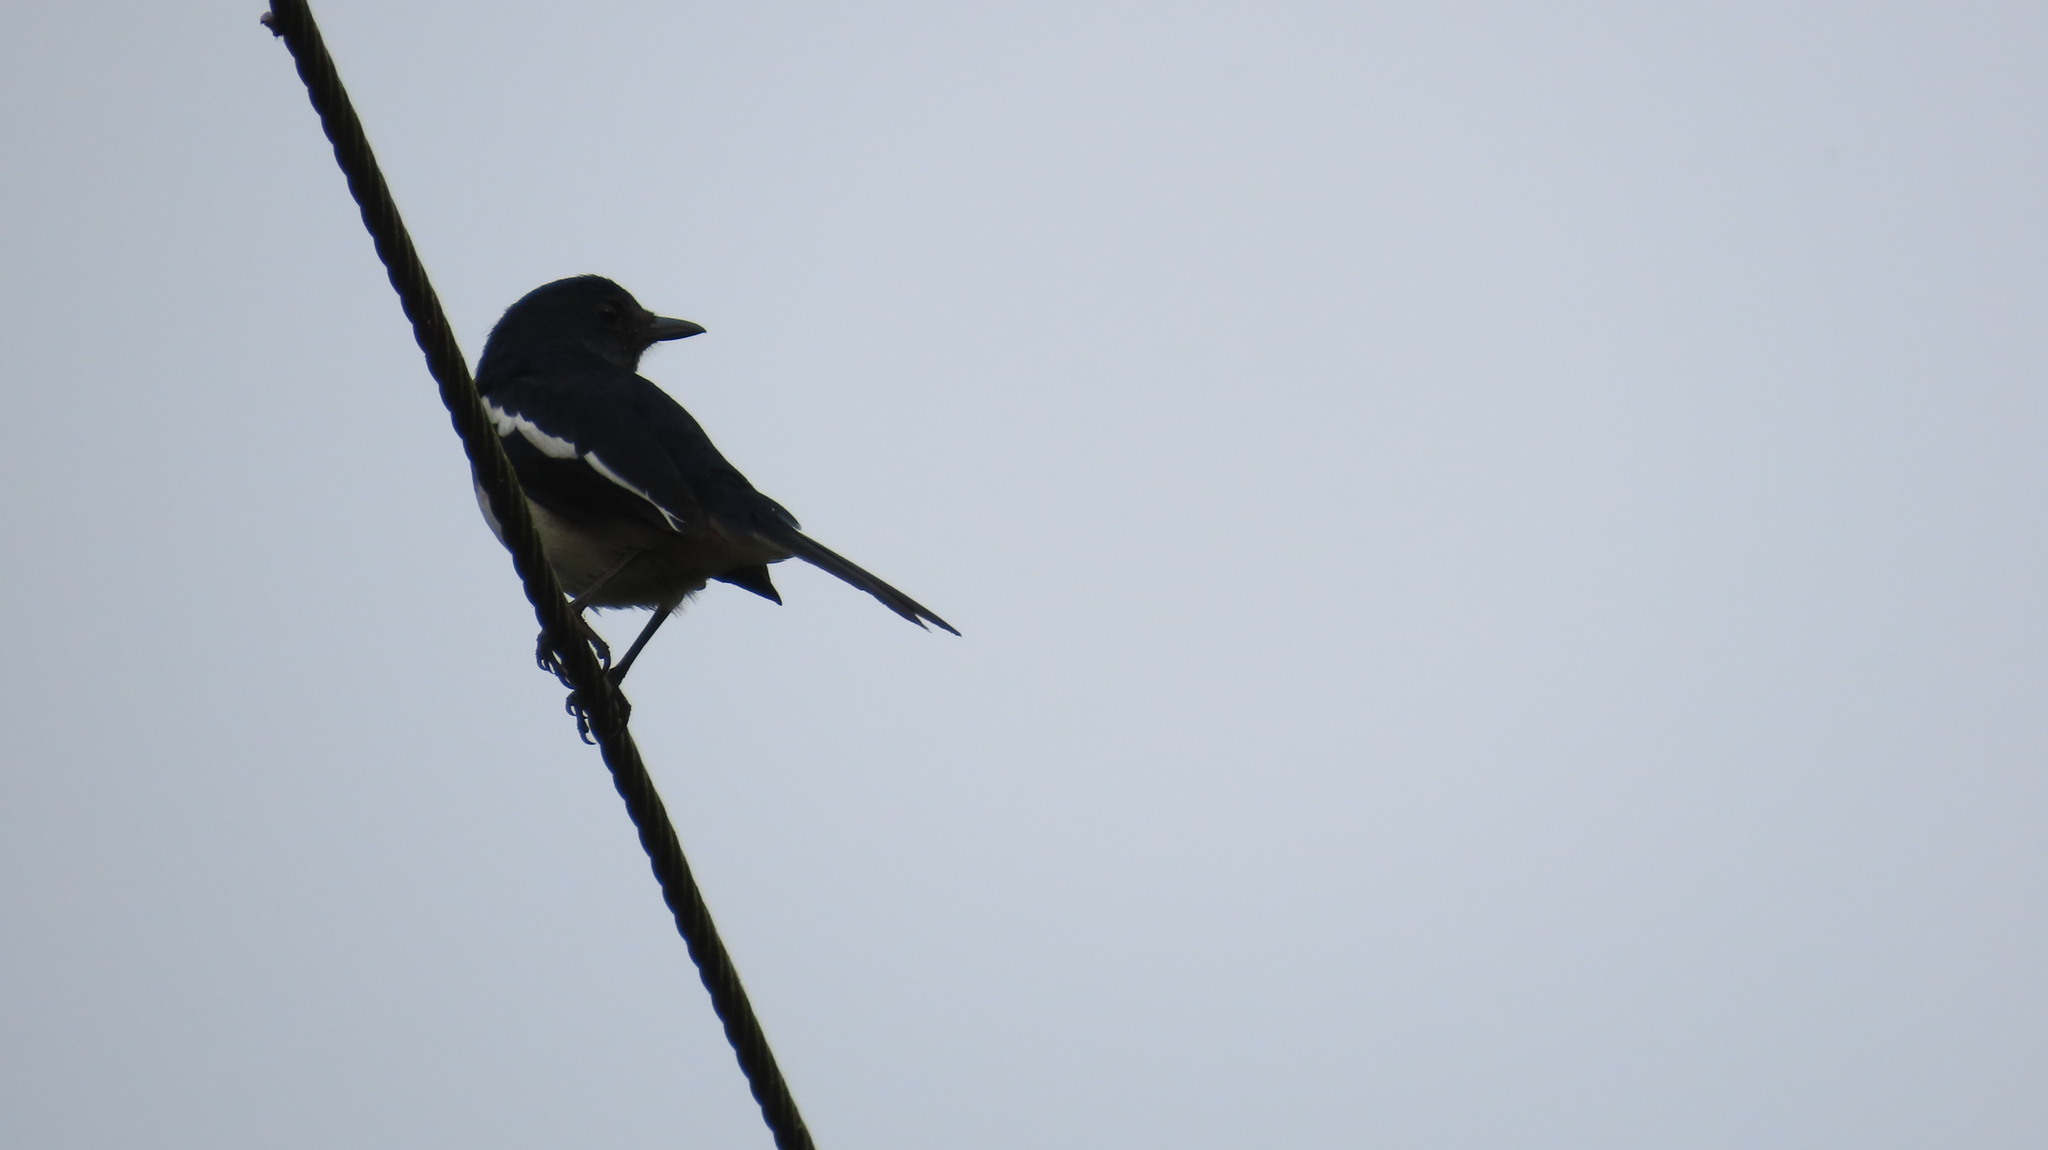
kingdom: Animalia
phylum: Chordata
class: Aves
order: Passeriformes
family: Muscicapidae
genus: Copsychus
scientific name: Copsychus saularis
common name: Oriental magpie-robin
